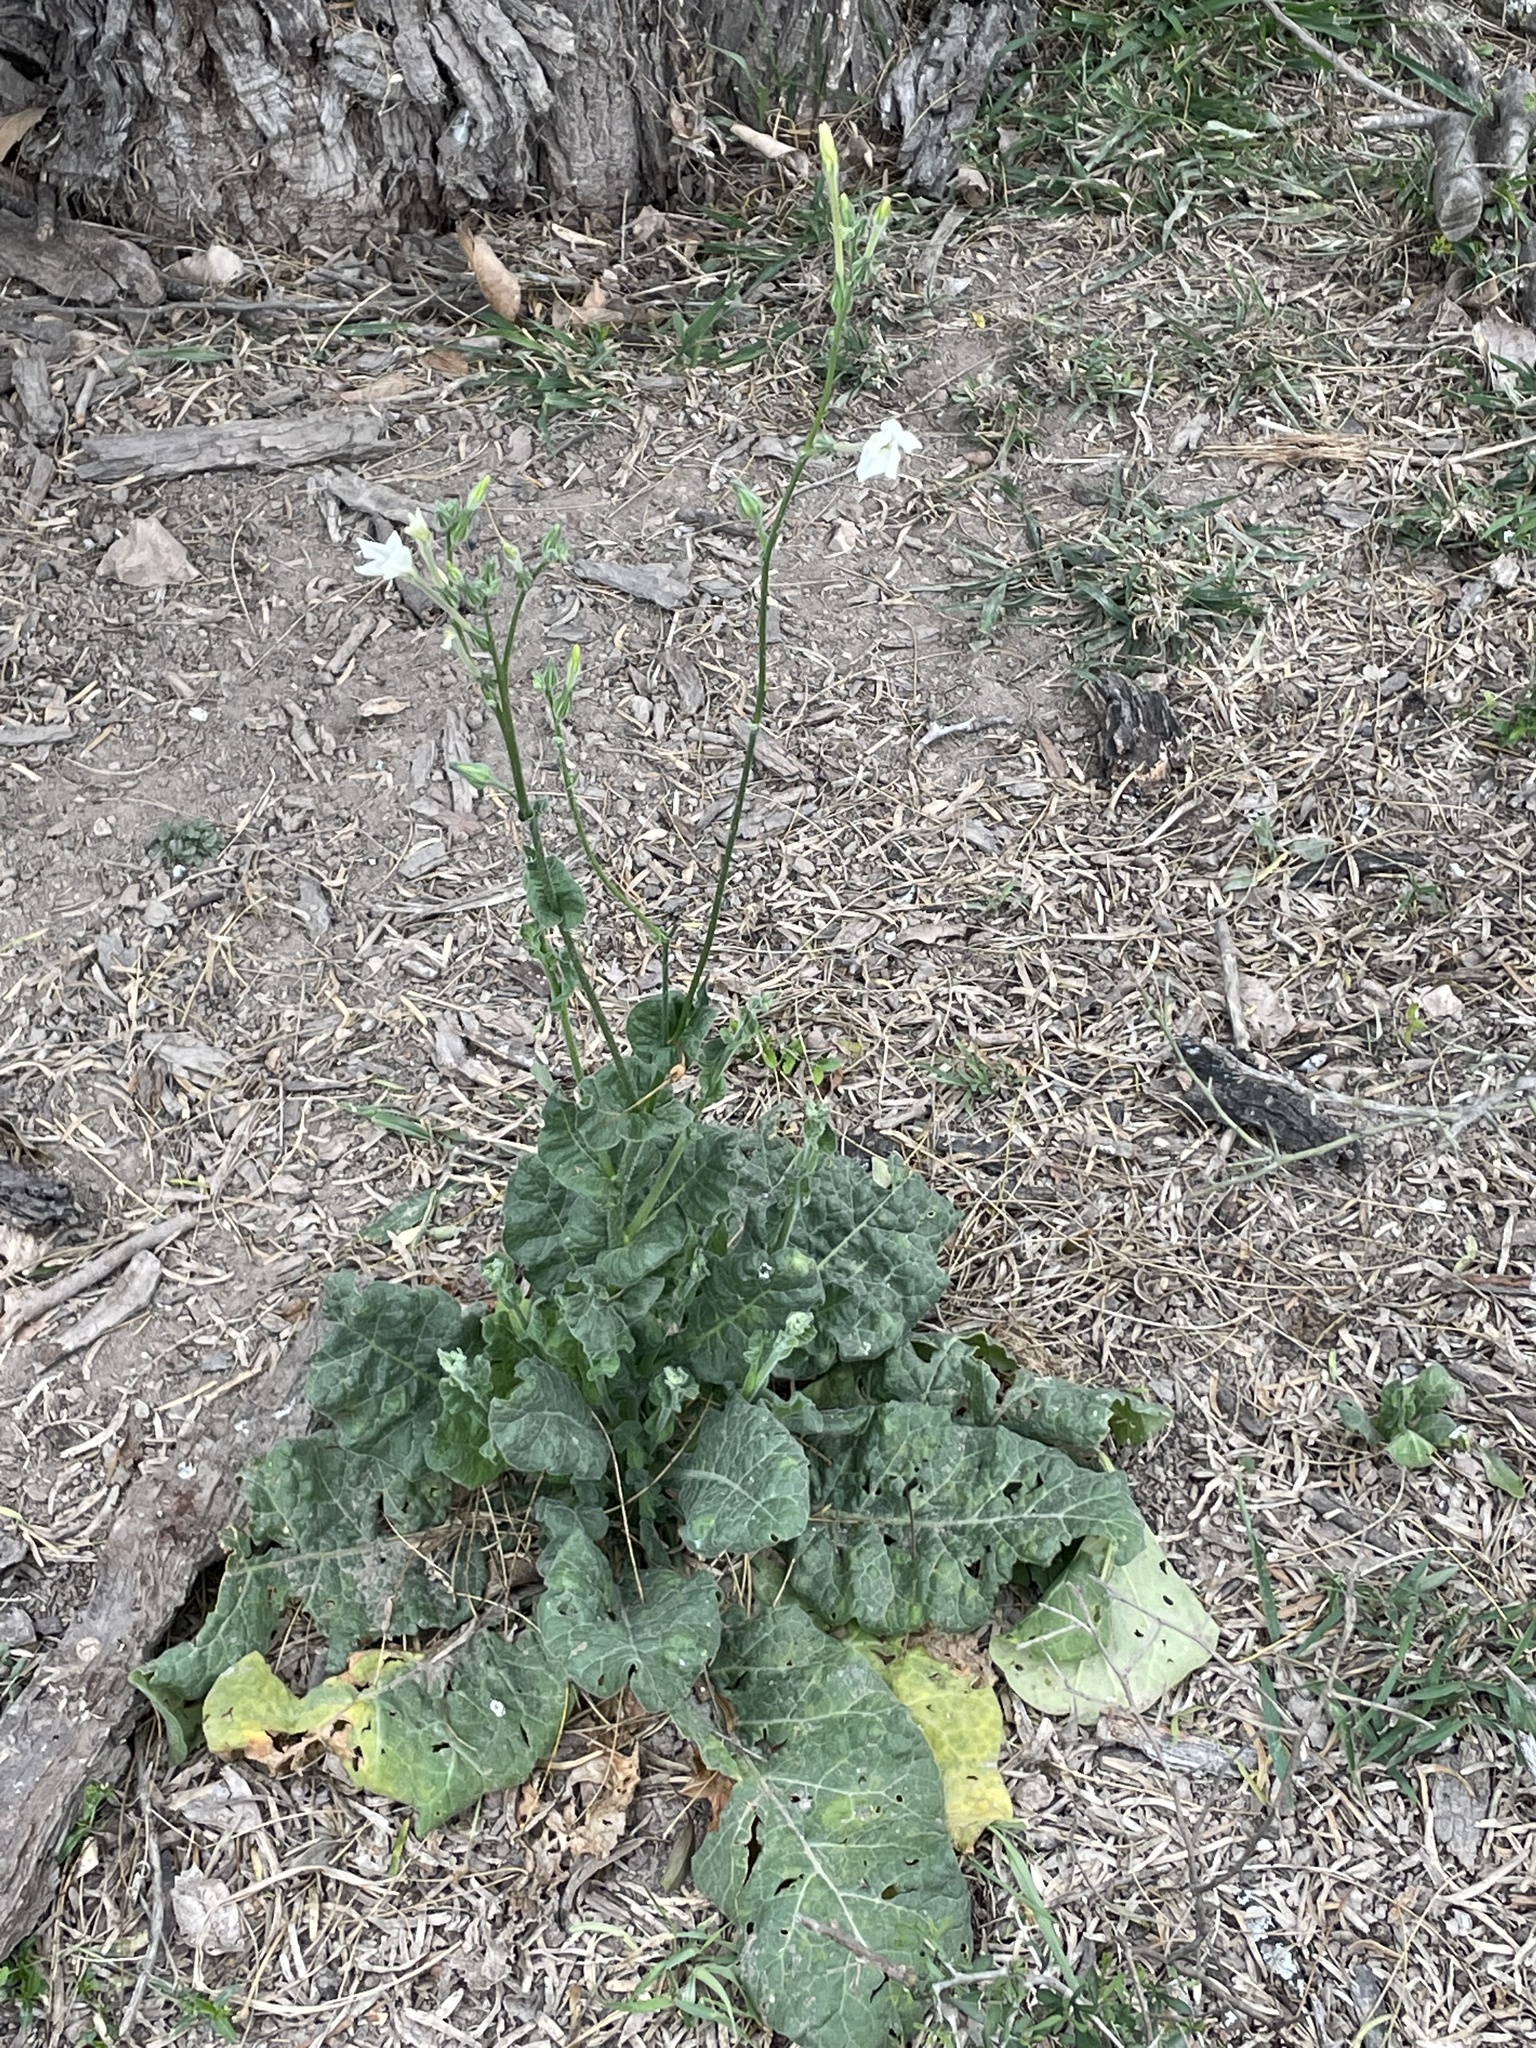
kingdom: Plantae
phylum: Tracheophyta
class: Magnoliopsida
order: Solanales
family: Solanaceae
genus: Nicotiana
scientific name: Nicotiana repanda
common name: Fiddle-leaf tobacco
